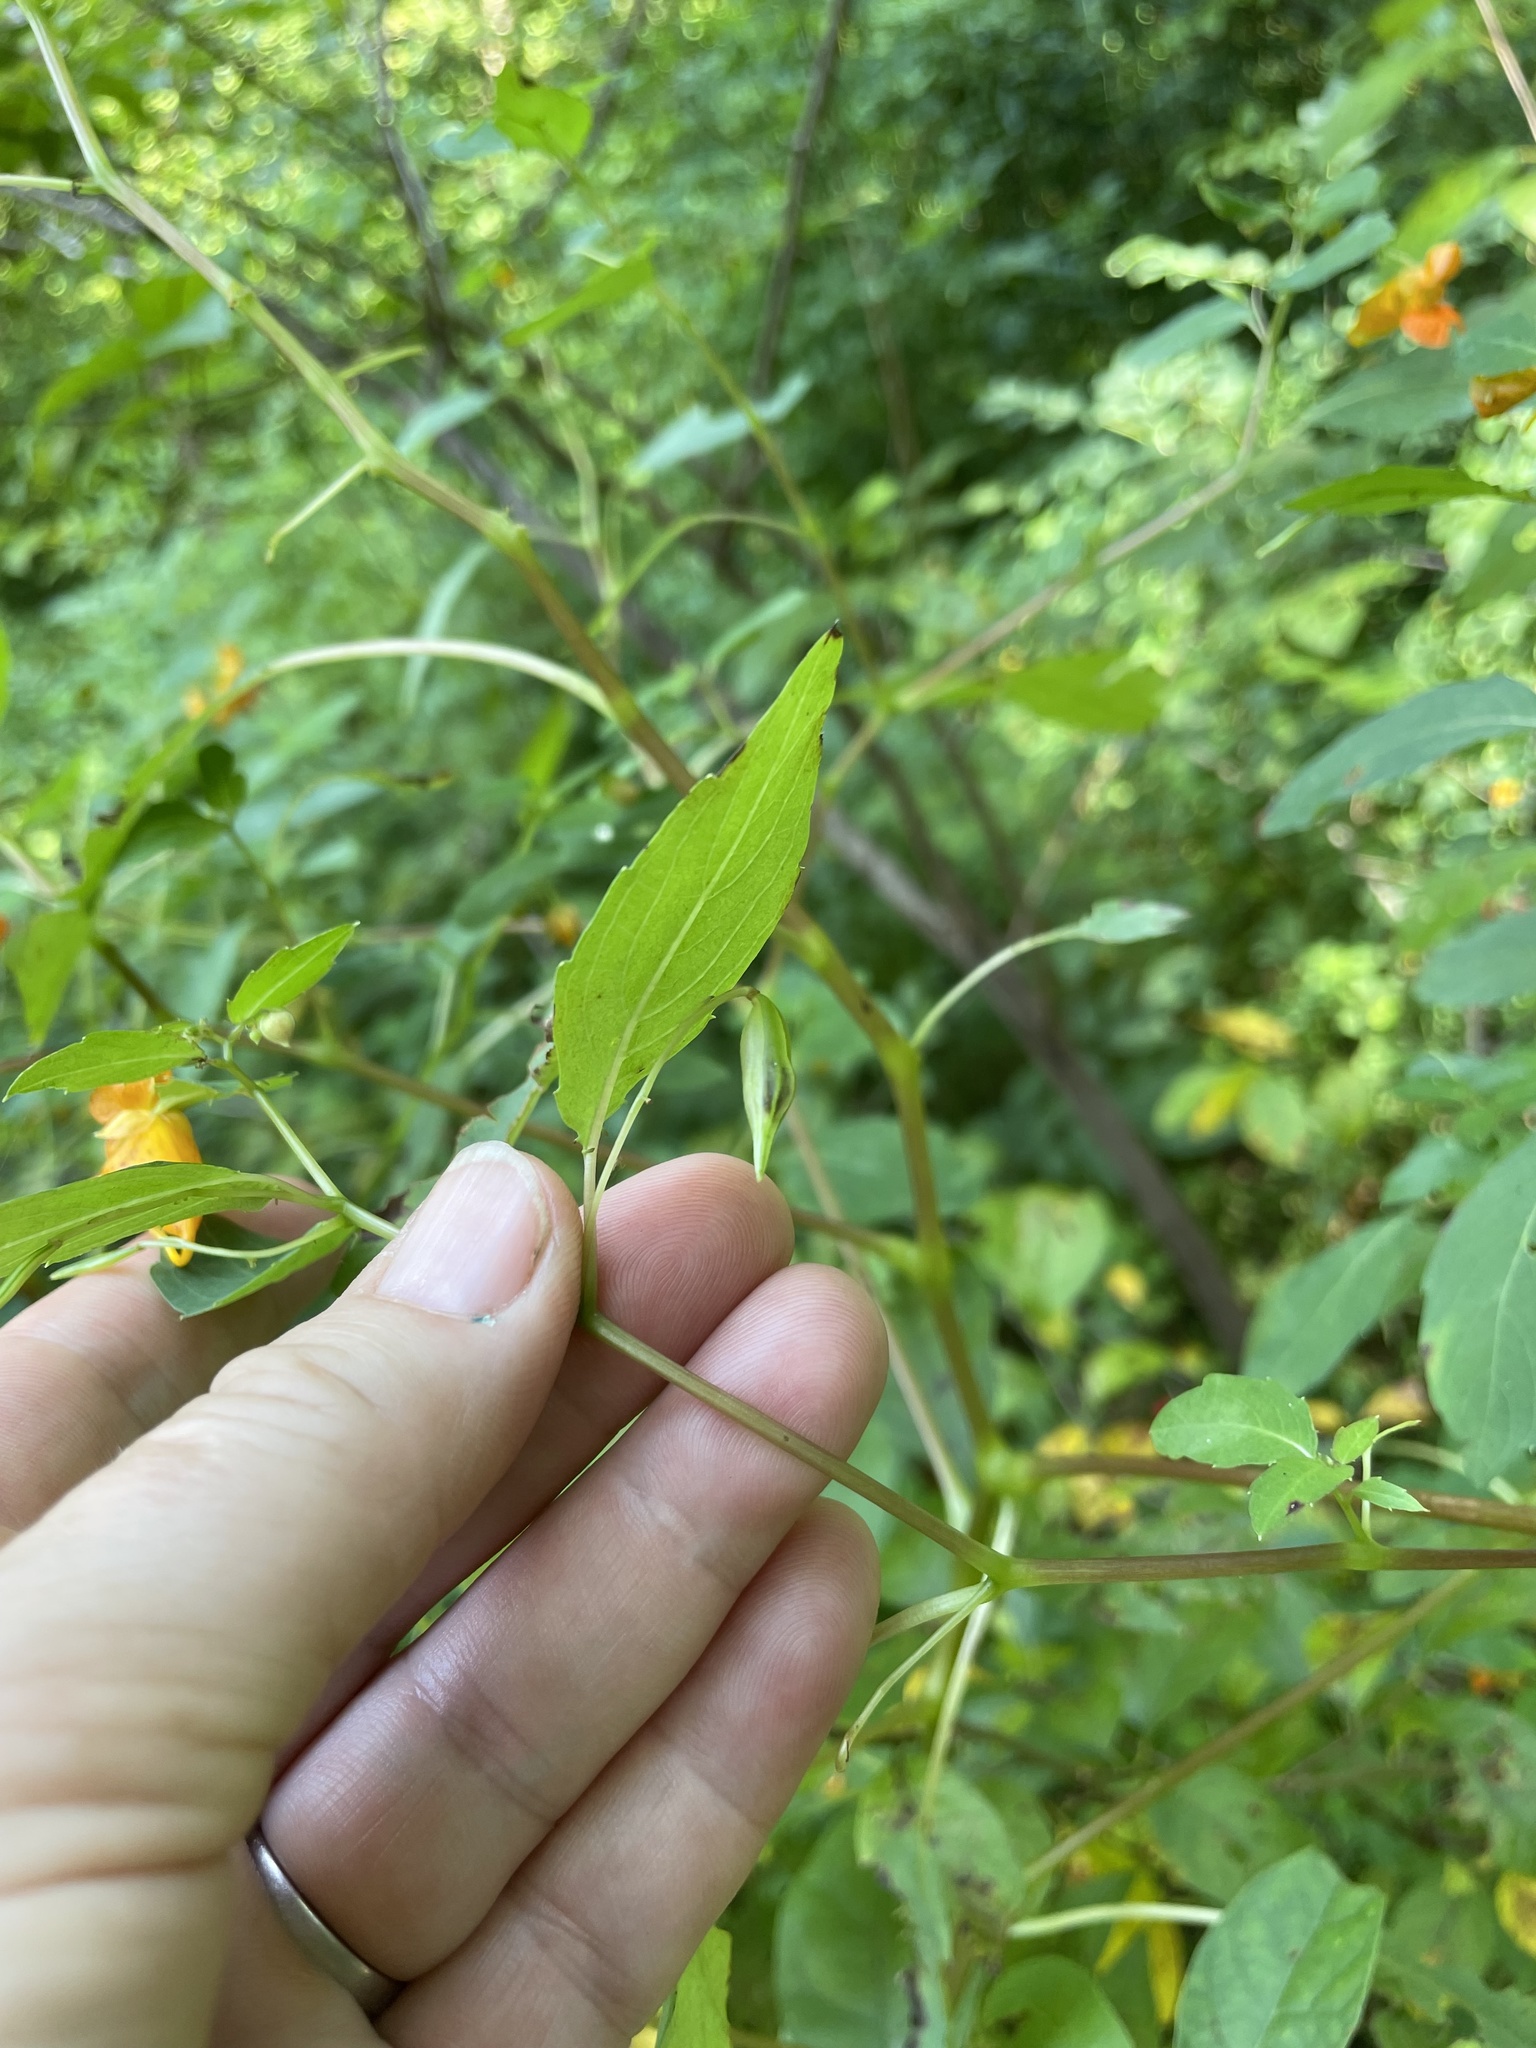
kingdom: Plantae
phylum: Tracheophyta
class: Magnoliopsida
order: Ericales
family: Balsaminaceae
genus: Impatiens
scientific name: Impatiens capensis
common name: Orange balsam
